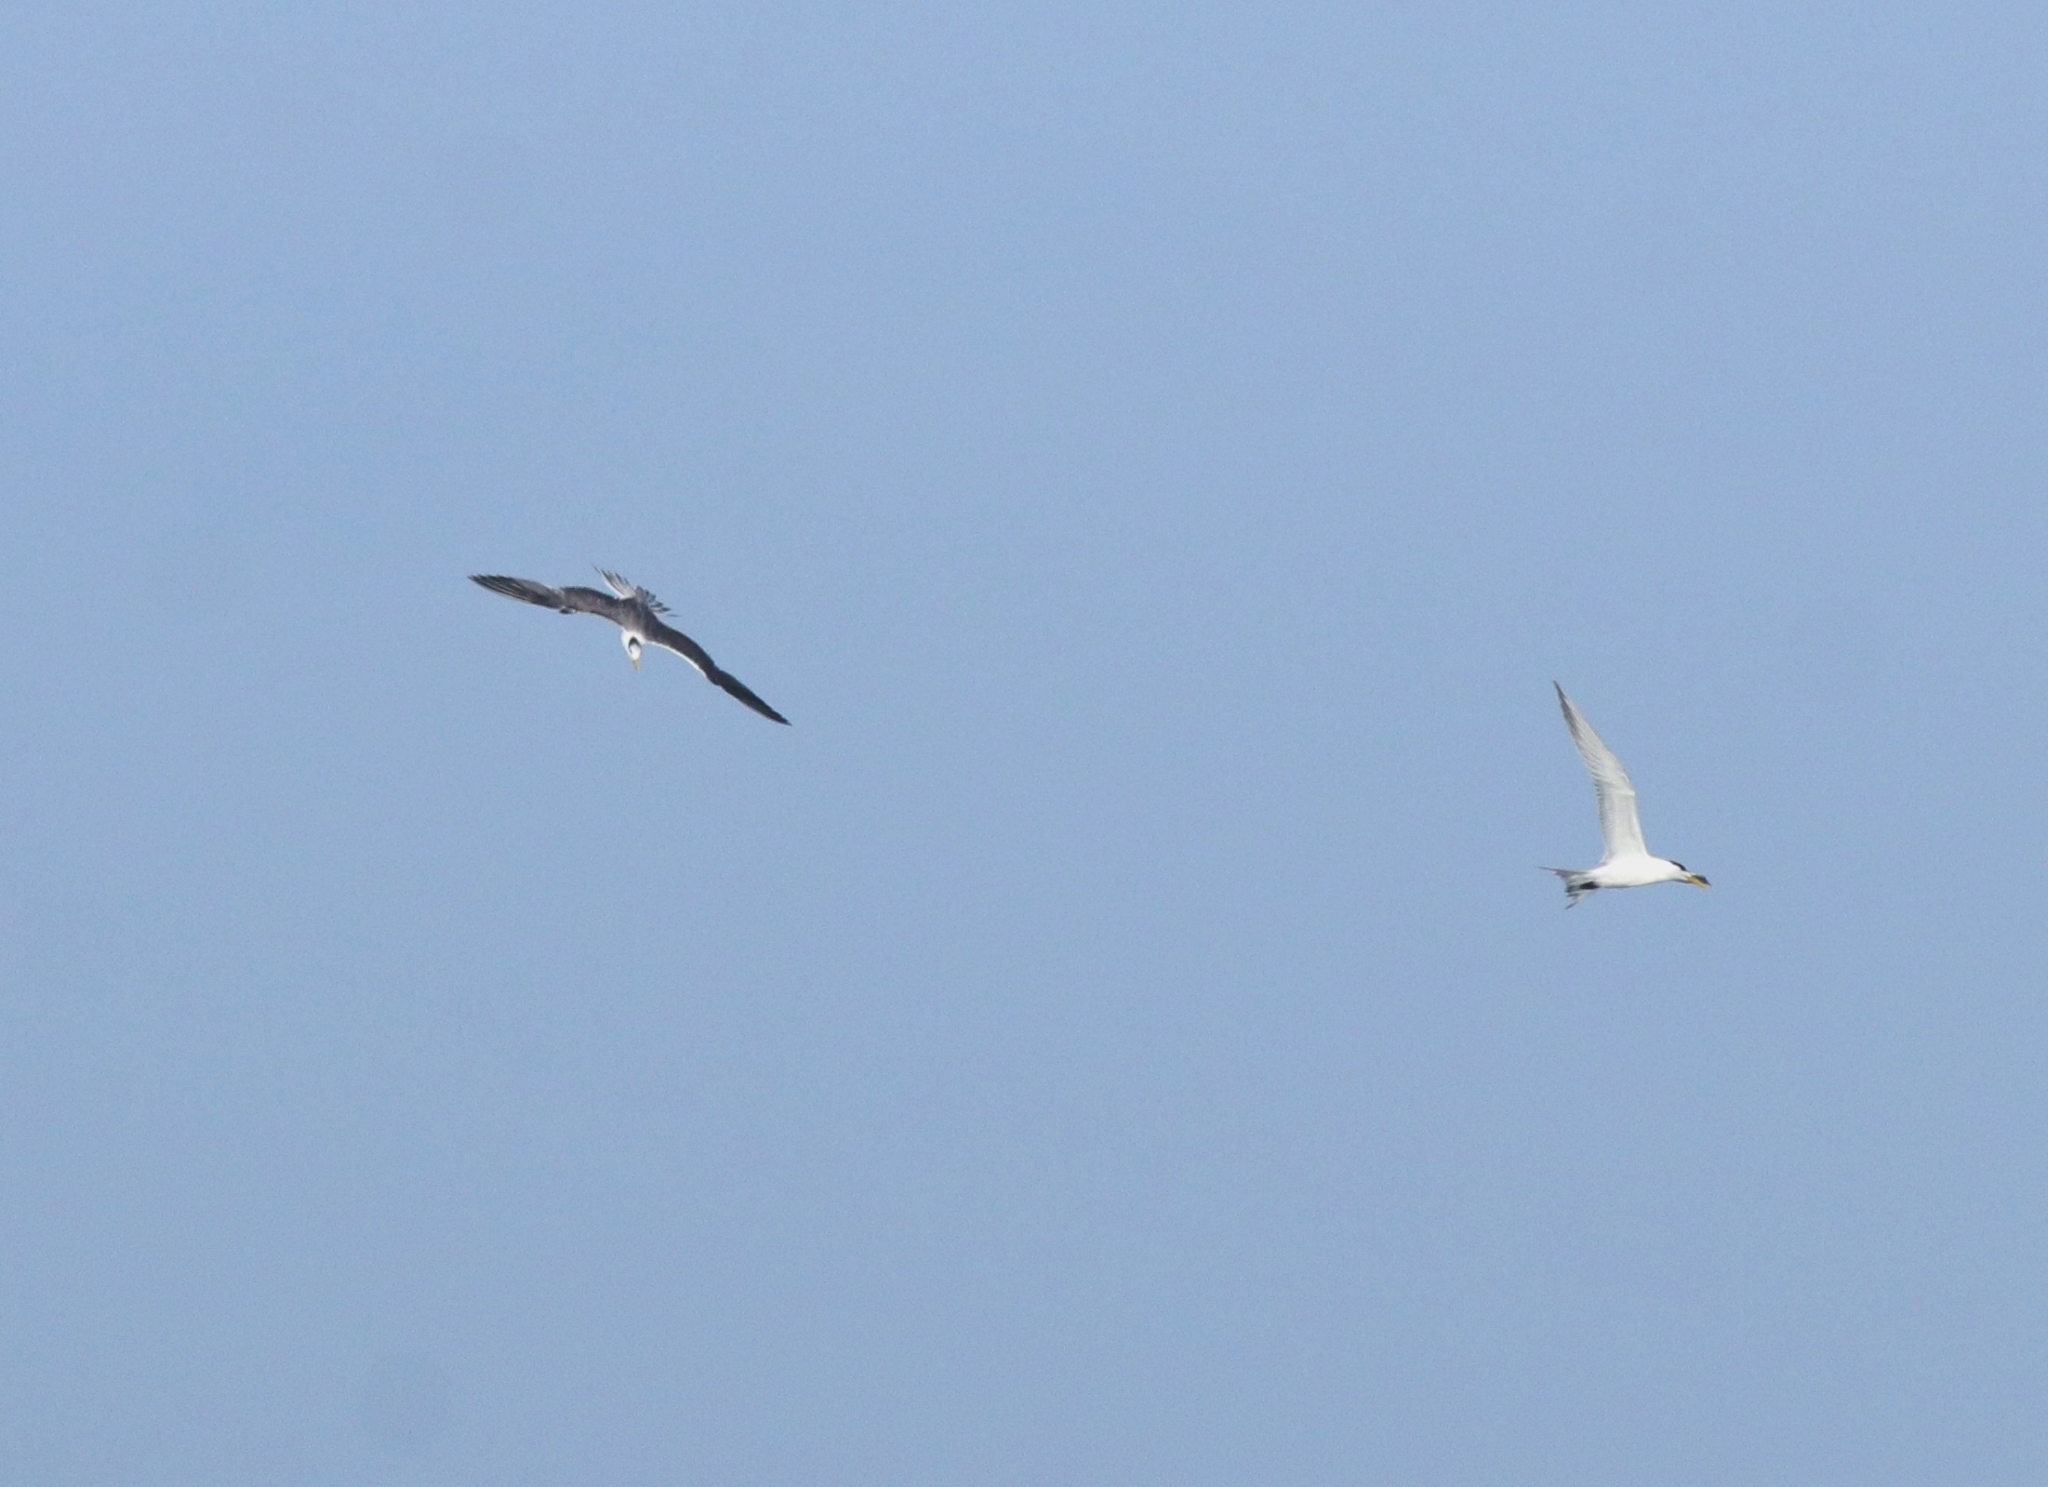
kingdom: Animalia
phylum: Chordata
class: Aves
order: Charadriiformes
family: Laridae
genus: Thalasseus
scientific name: Thalasseus bergii
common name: Greater crested tern
